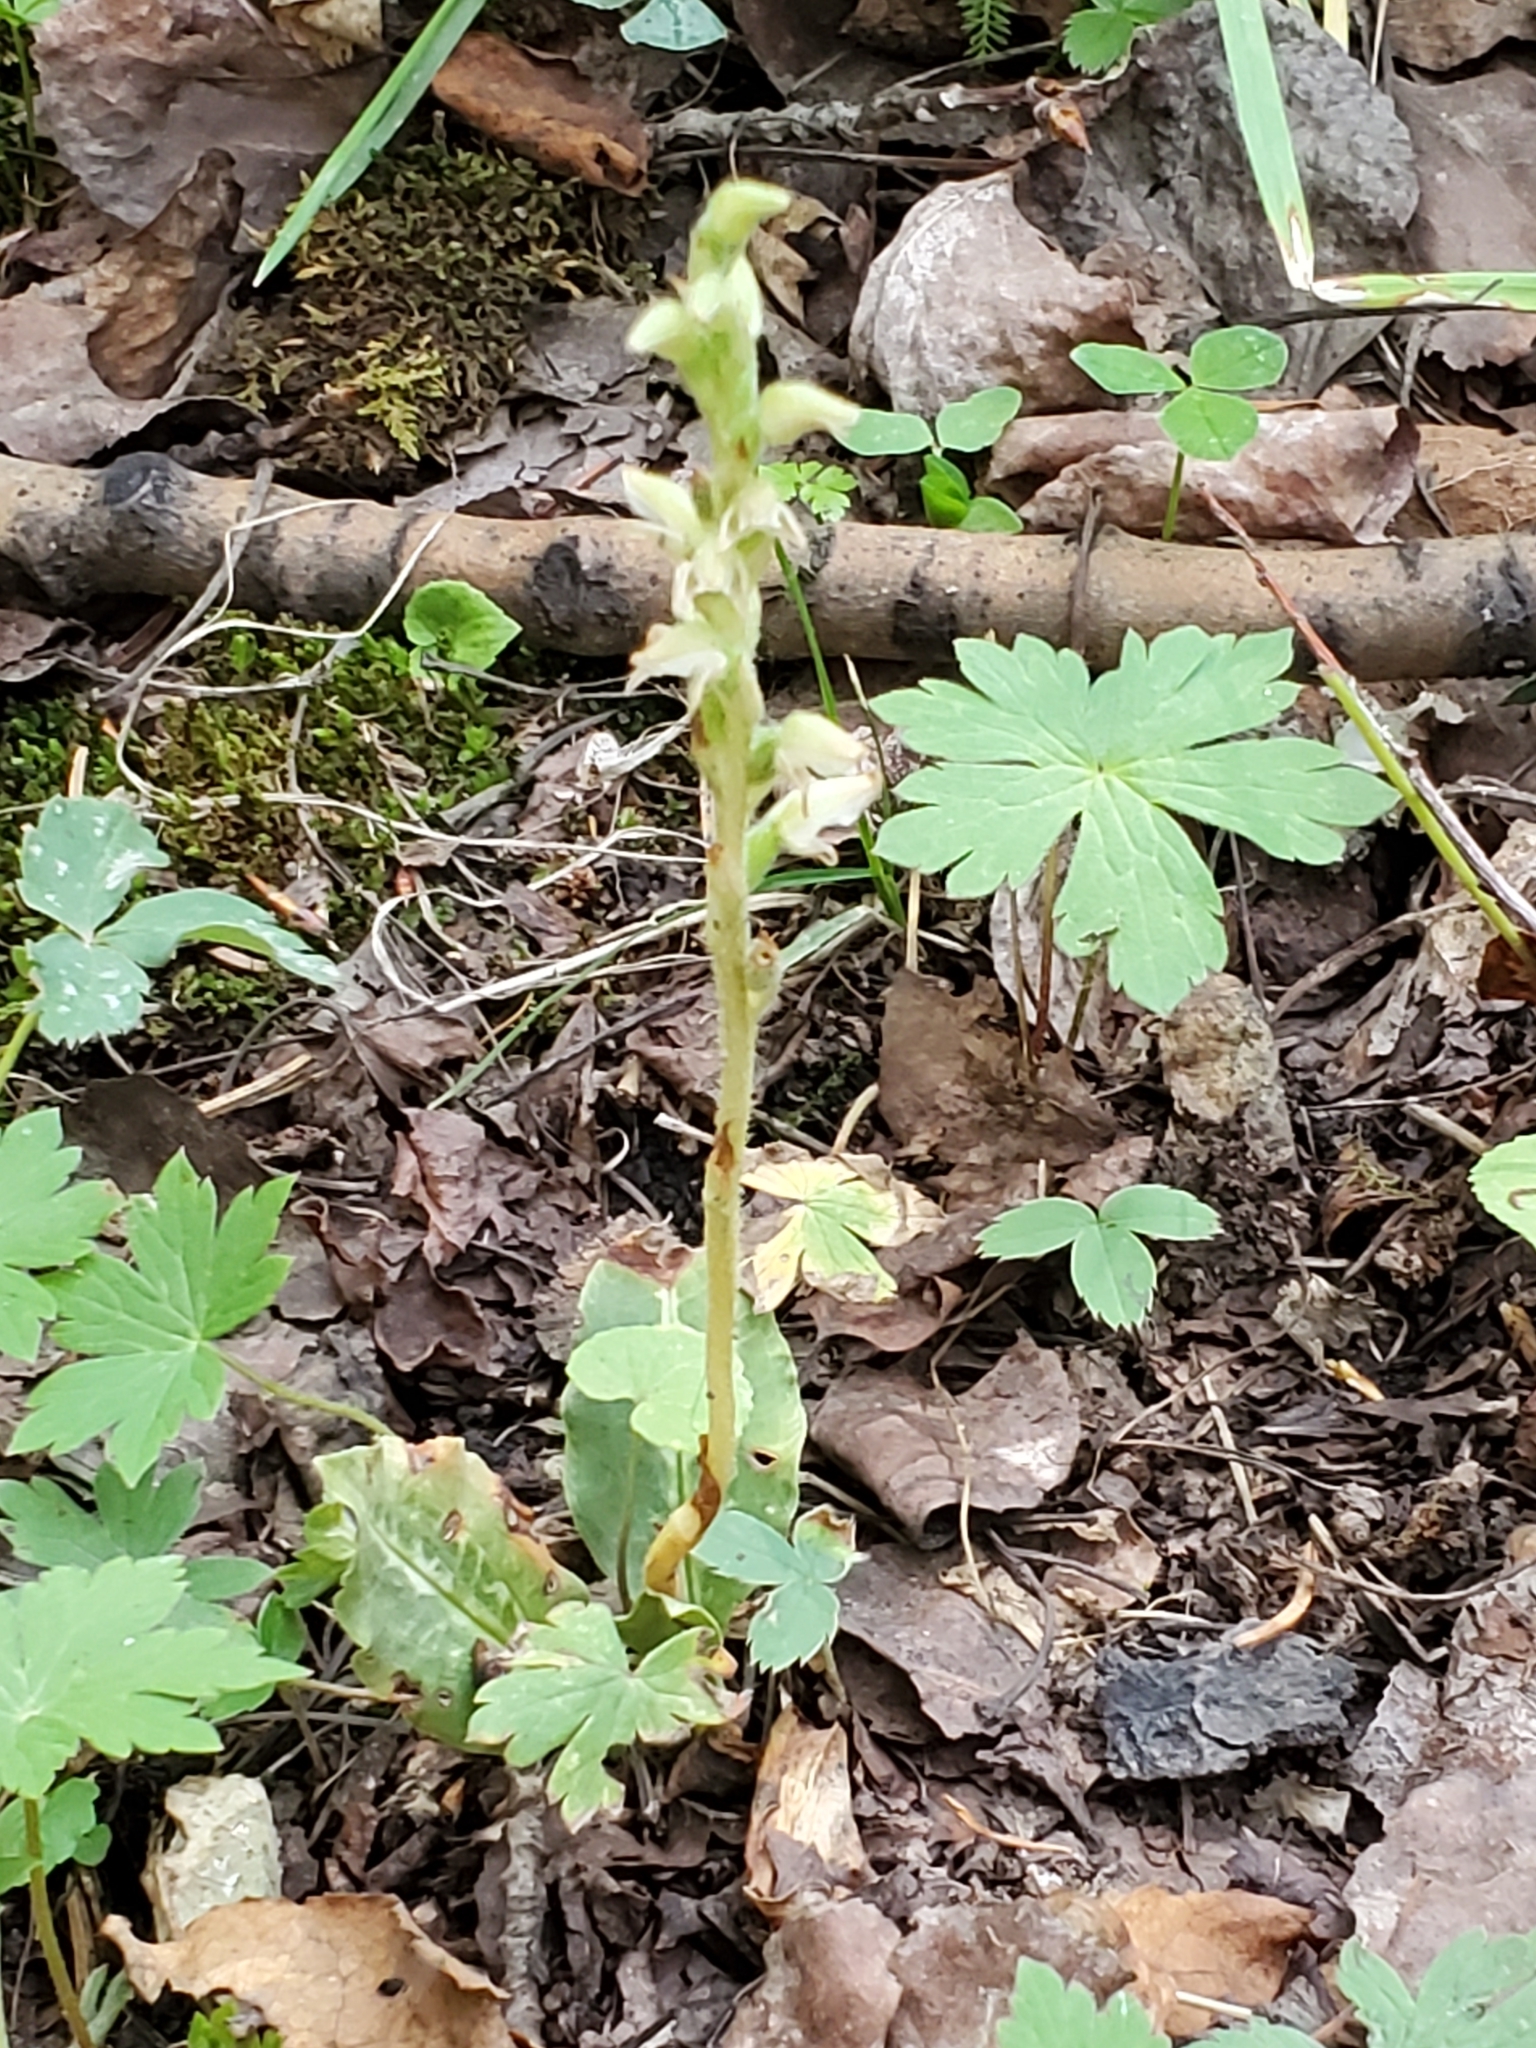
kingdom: Plantae
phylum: Tracheophyta
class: Liliopsida
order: Asparagales
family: Orchidaceae
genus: Goodyera
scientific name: Goodyera oblongifolia
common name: Giant rattlesnake-plantain
